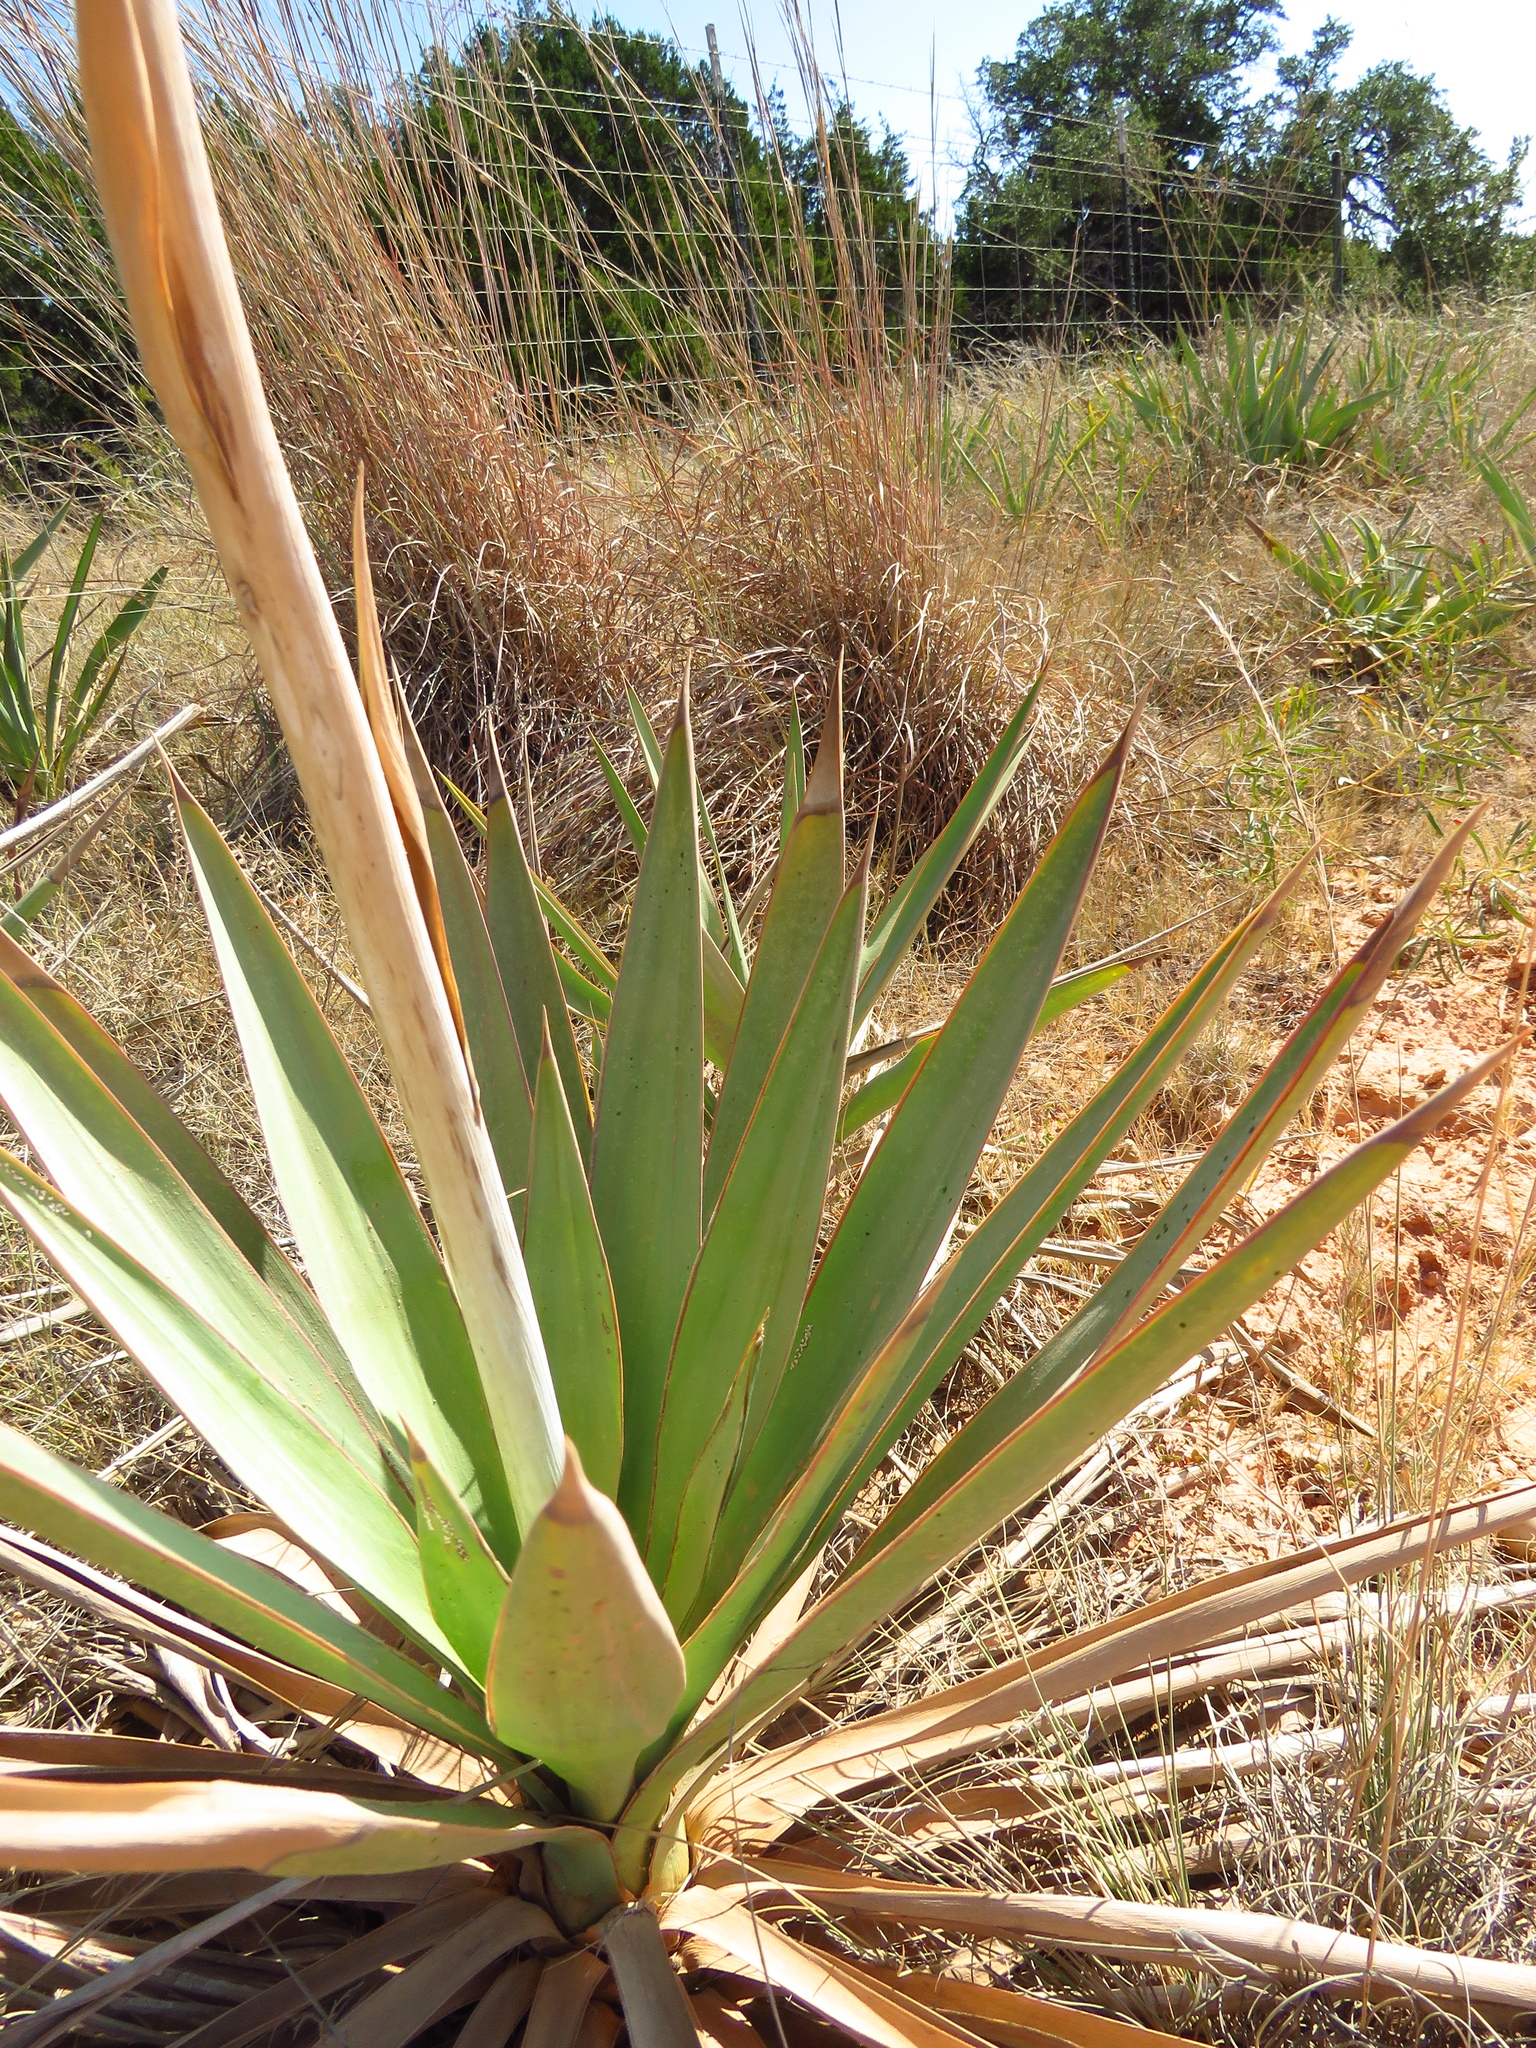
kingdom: Plantae
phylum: Tracheophyta
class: Liliopsida
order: Asparagales
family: Asparagaceae
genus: Yucca
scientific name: Yucca pallida
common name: Pale leaf yucca
